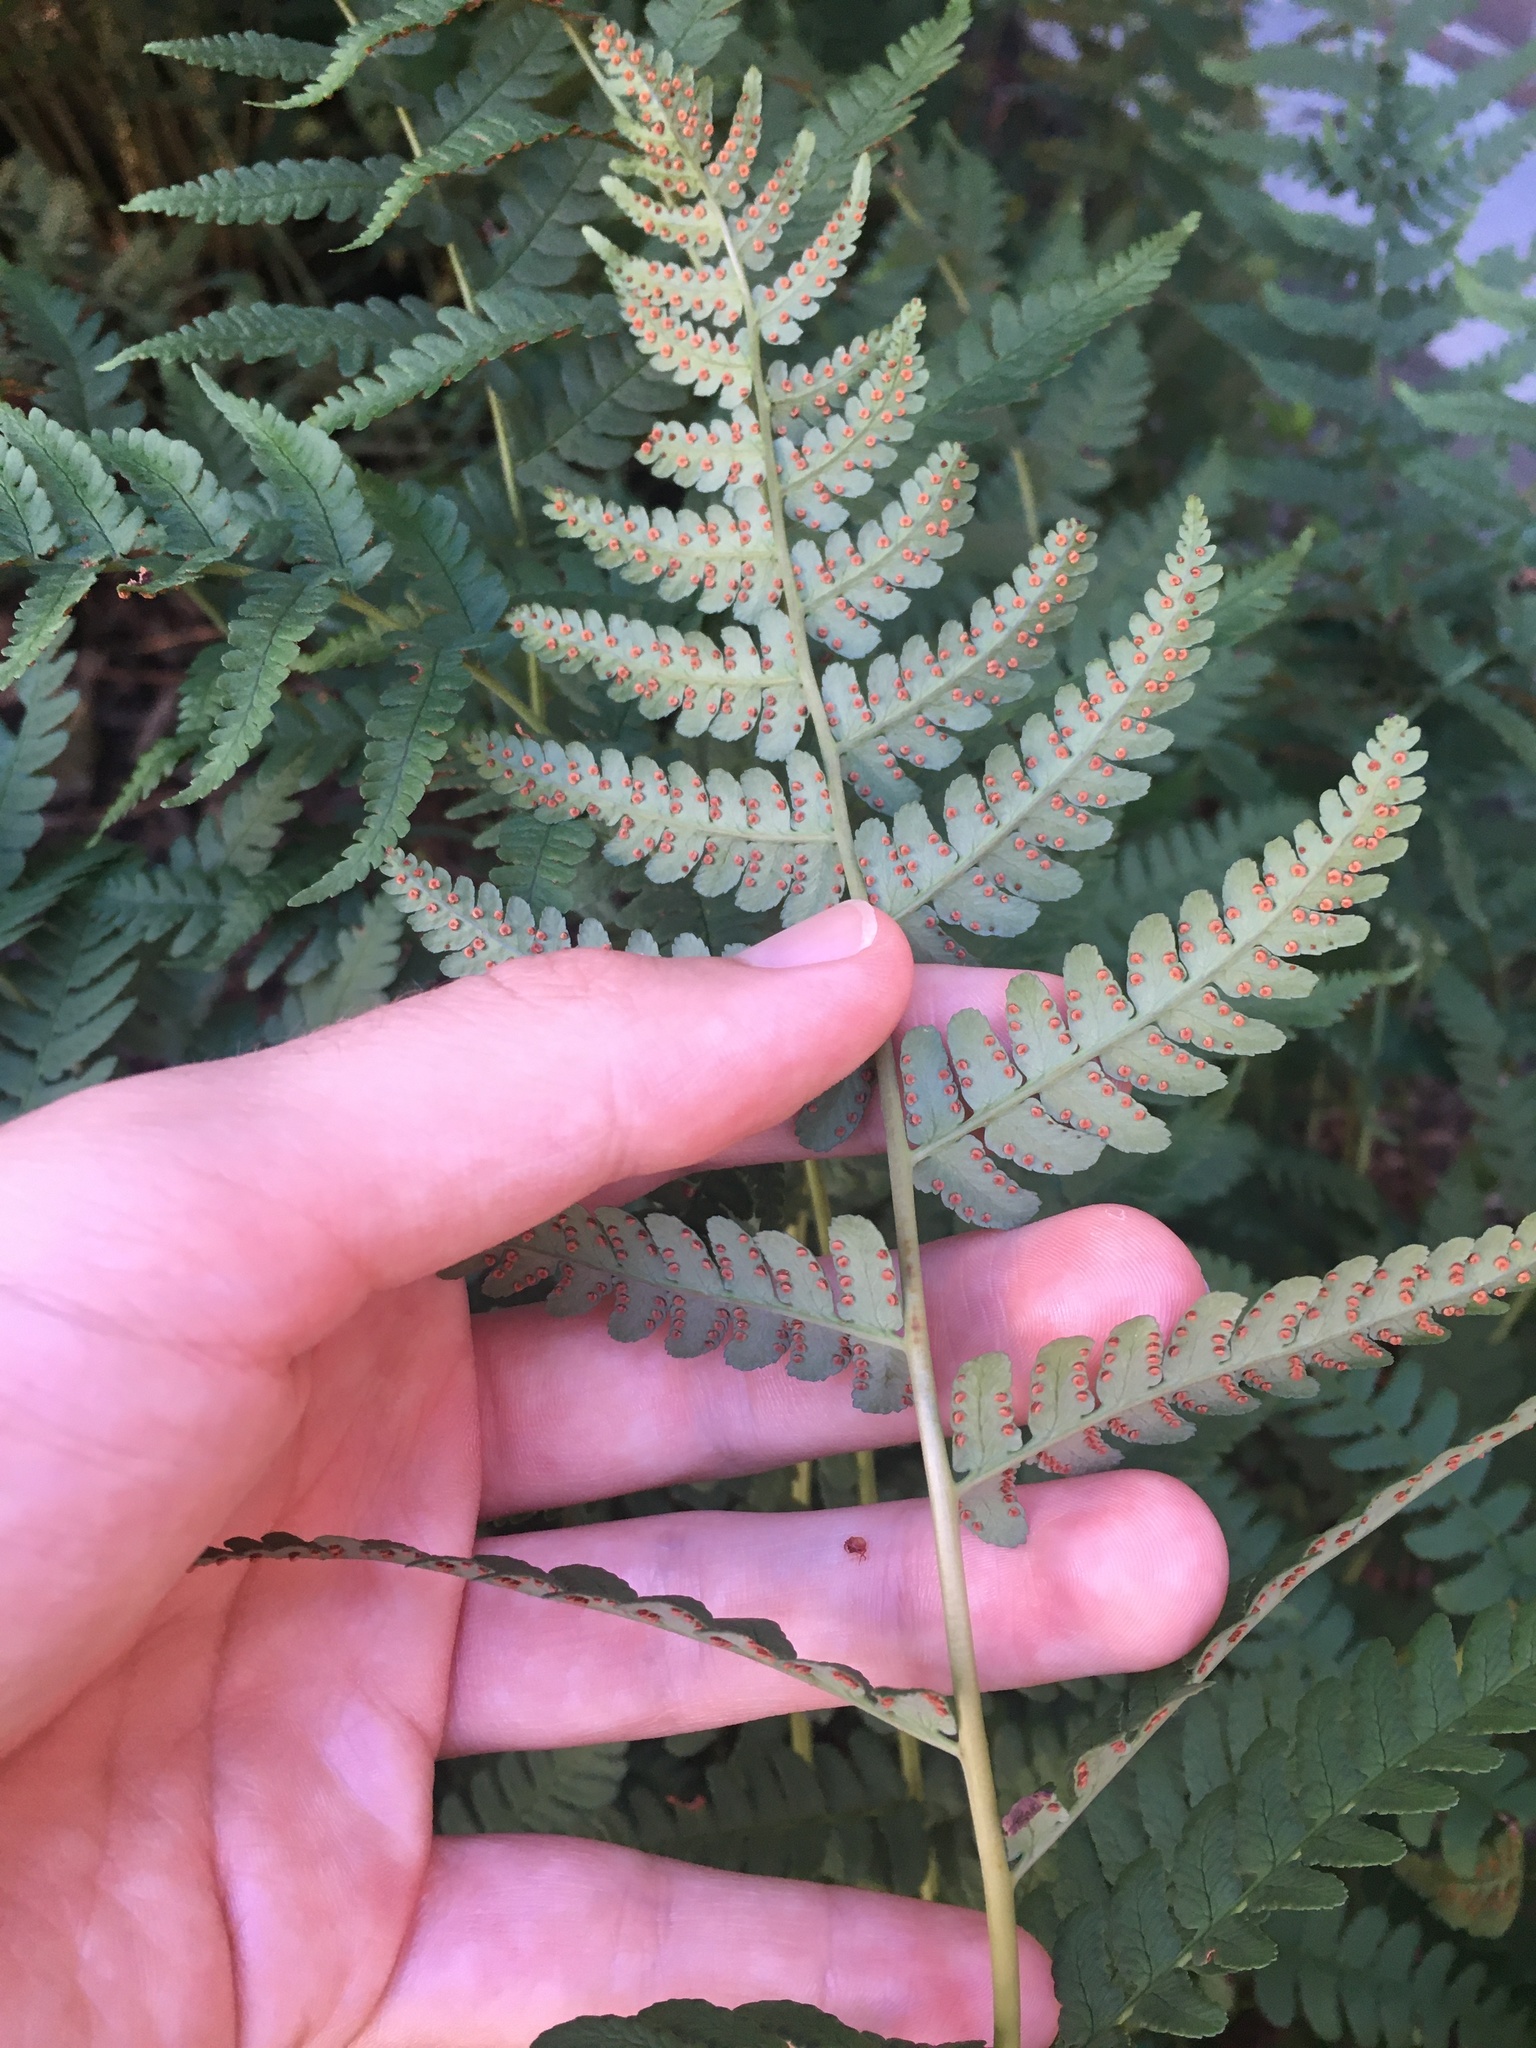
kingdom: Plantae
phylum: Tracheophyta
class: Polypodiopsida
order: Polypodiales
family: Dryopteridaceae
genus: Dryopteris
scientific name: Dryopteris marginalis
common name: Marginal wood fern
